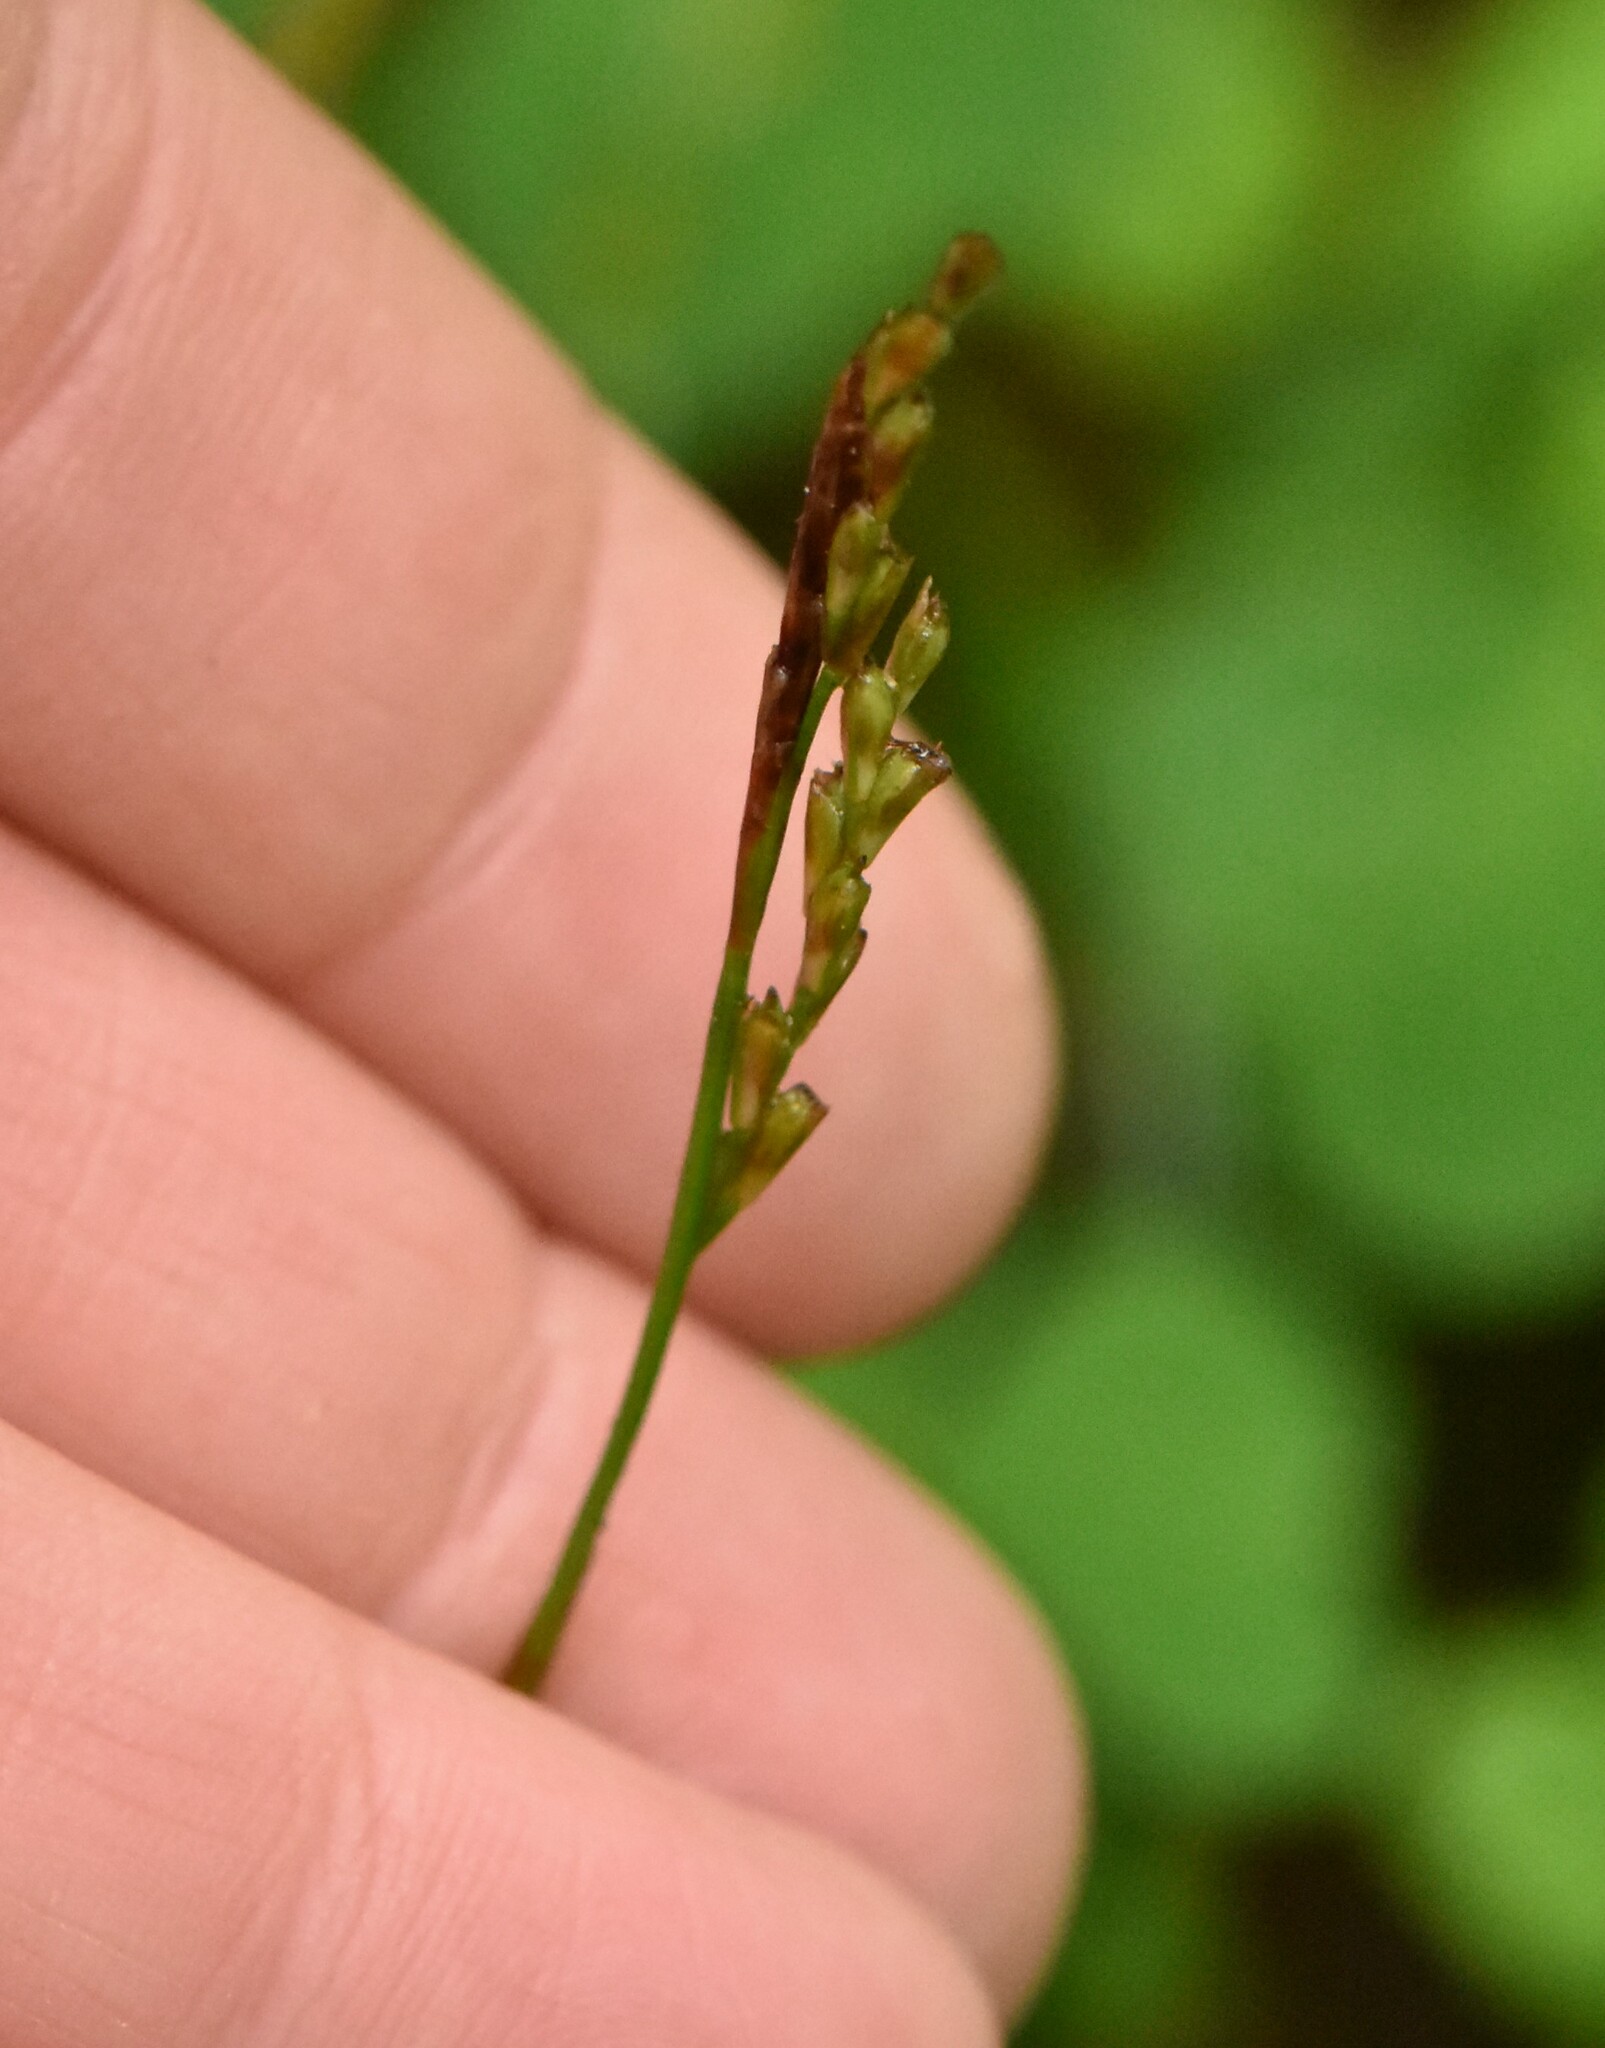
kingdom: Plantae
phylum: Tracheophyta
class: Liliopsida
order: Poales
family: Cyperaceae
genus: Carex
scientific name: Carex digitata
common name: Fingered sedge
